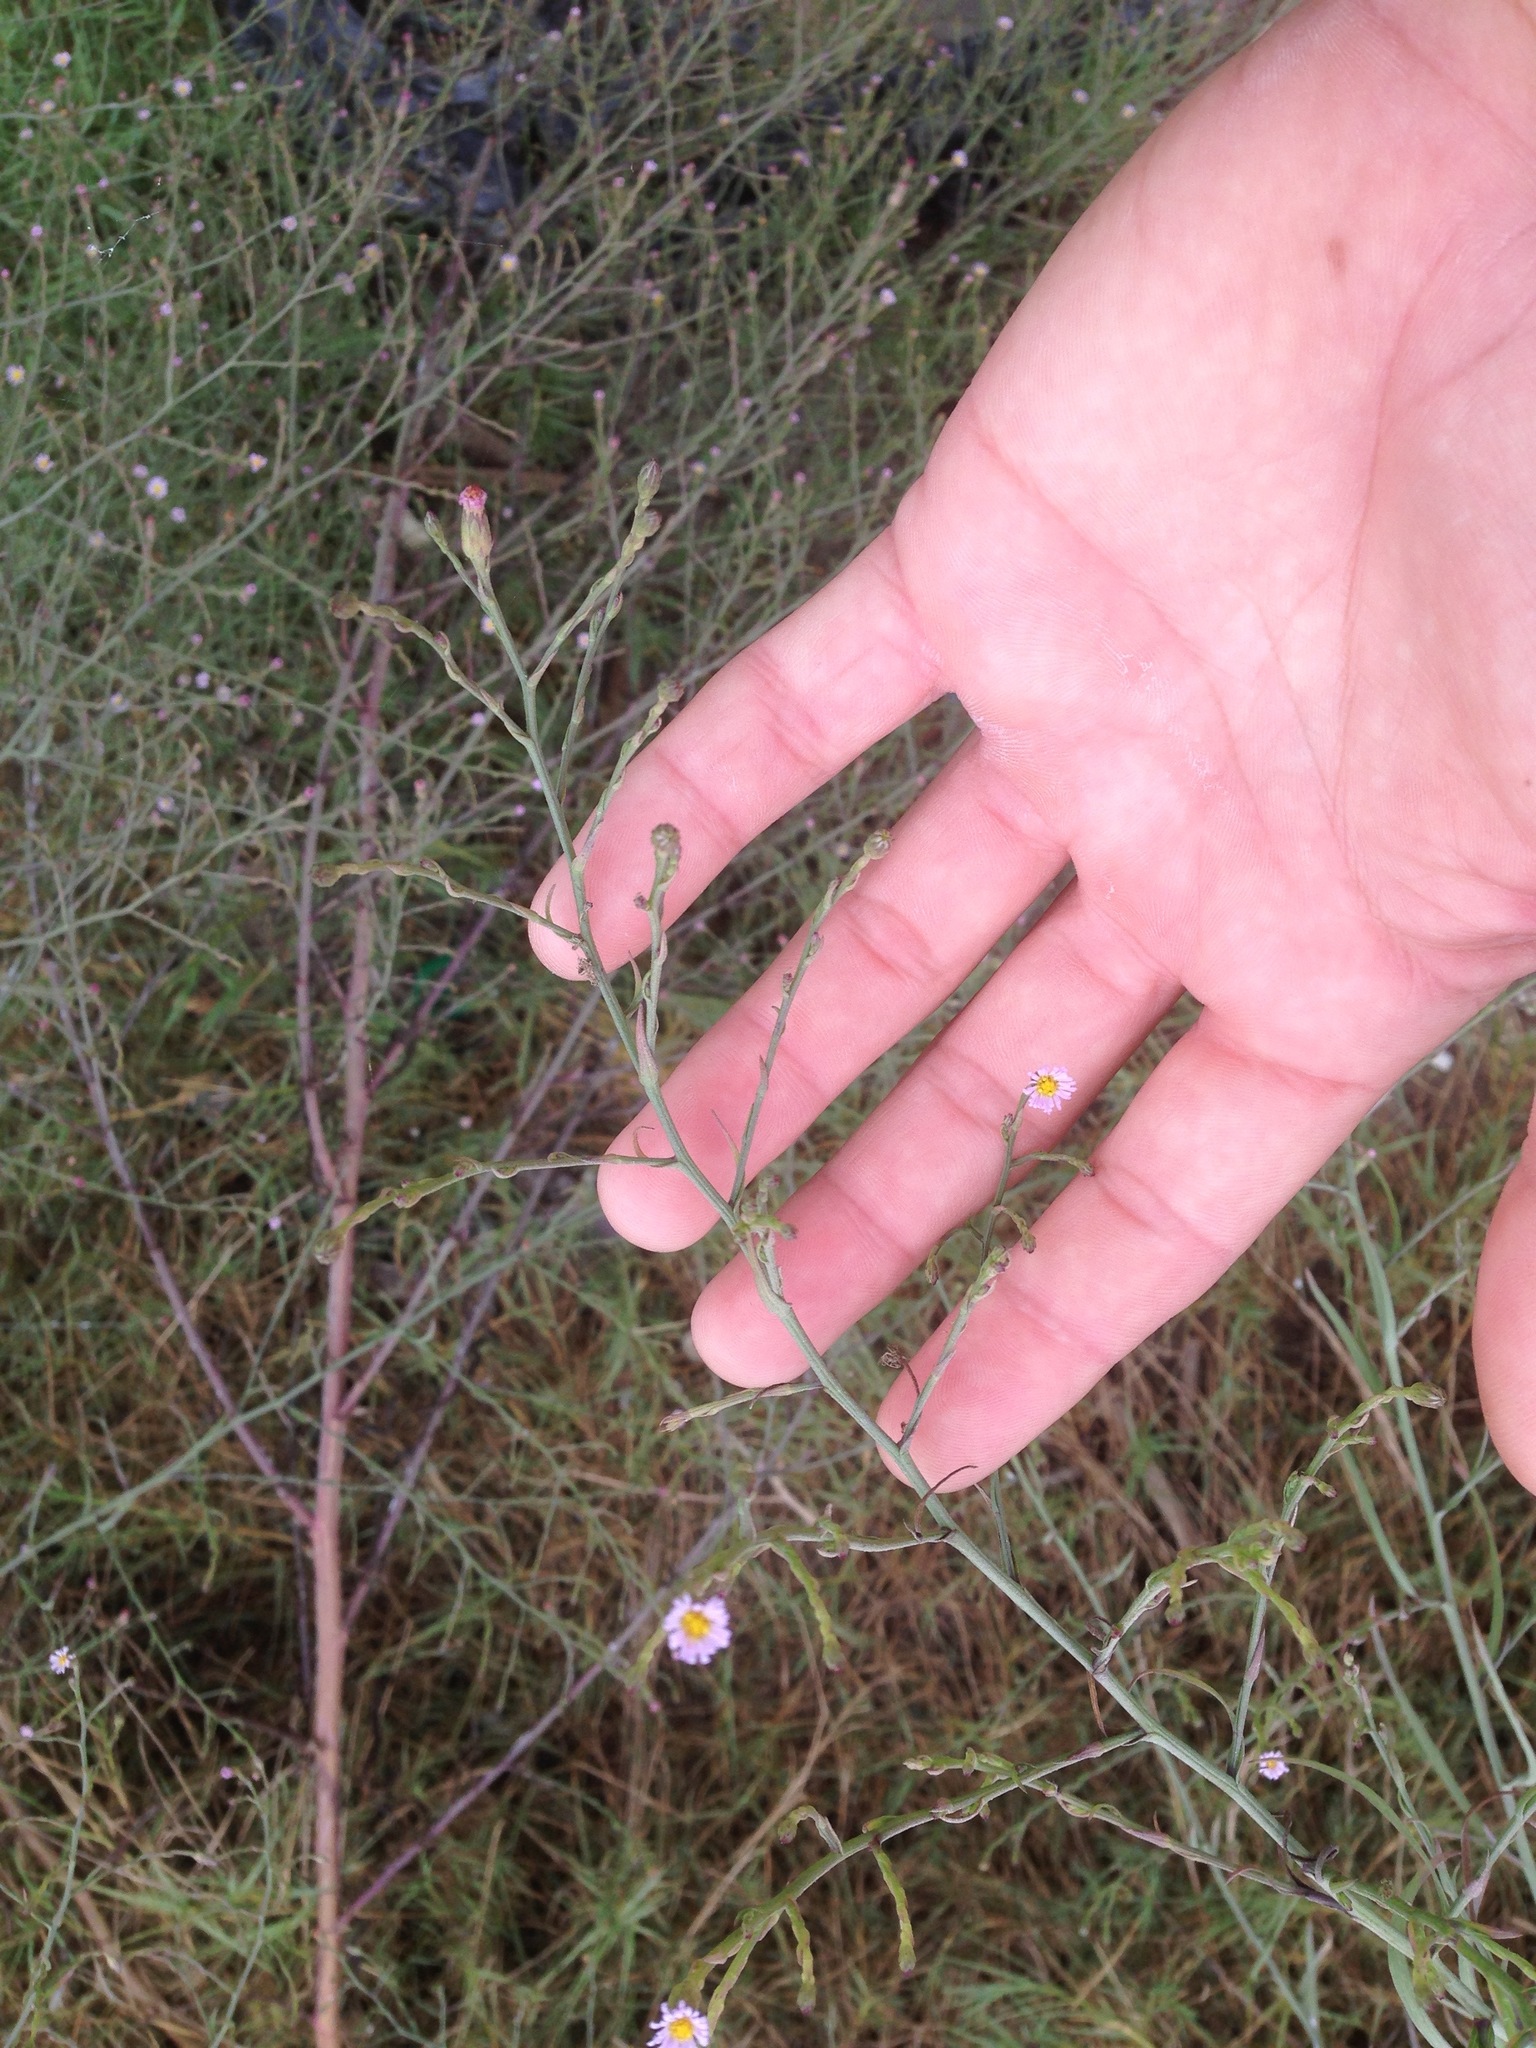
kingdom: Plantae
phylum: Tracheophyta
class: Magnoliopsida
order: Asterales
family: Asteraceae
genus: Symphyotrichum
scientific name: Symphyotrichum subulatum
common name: Annual saltmarsh aster
